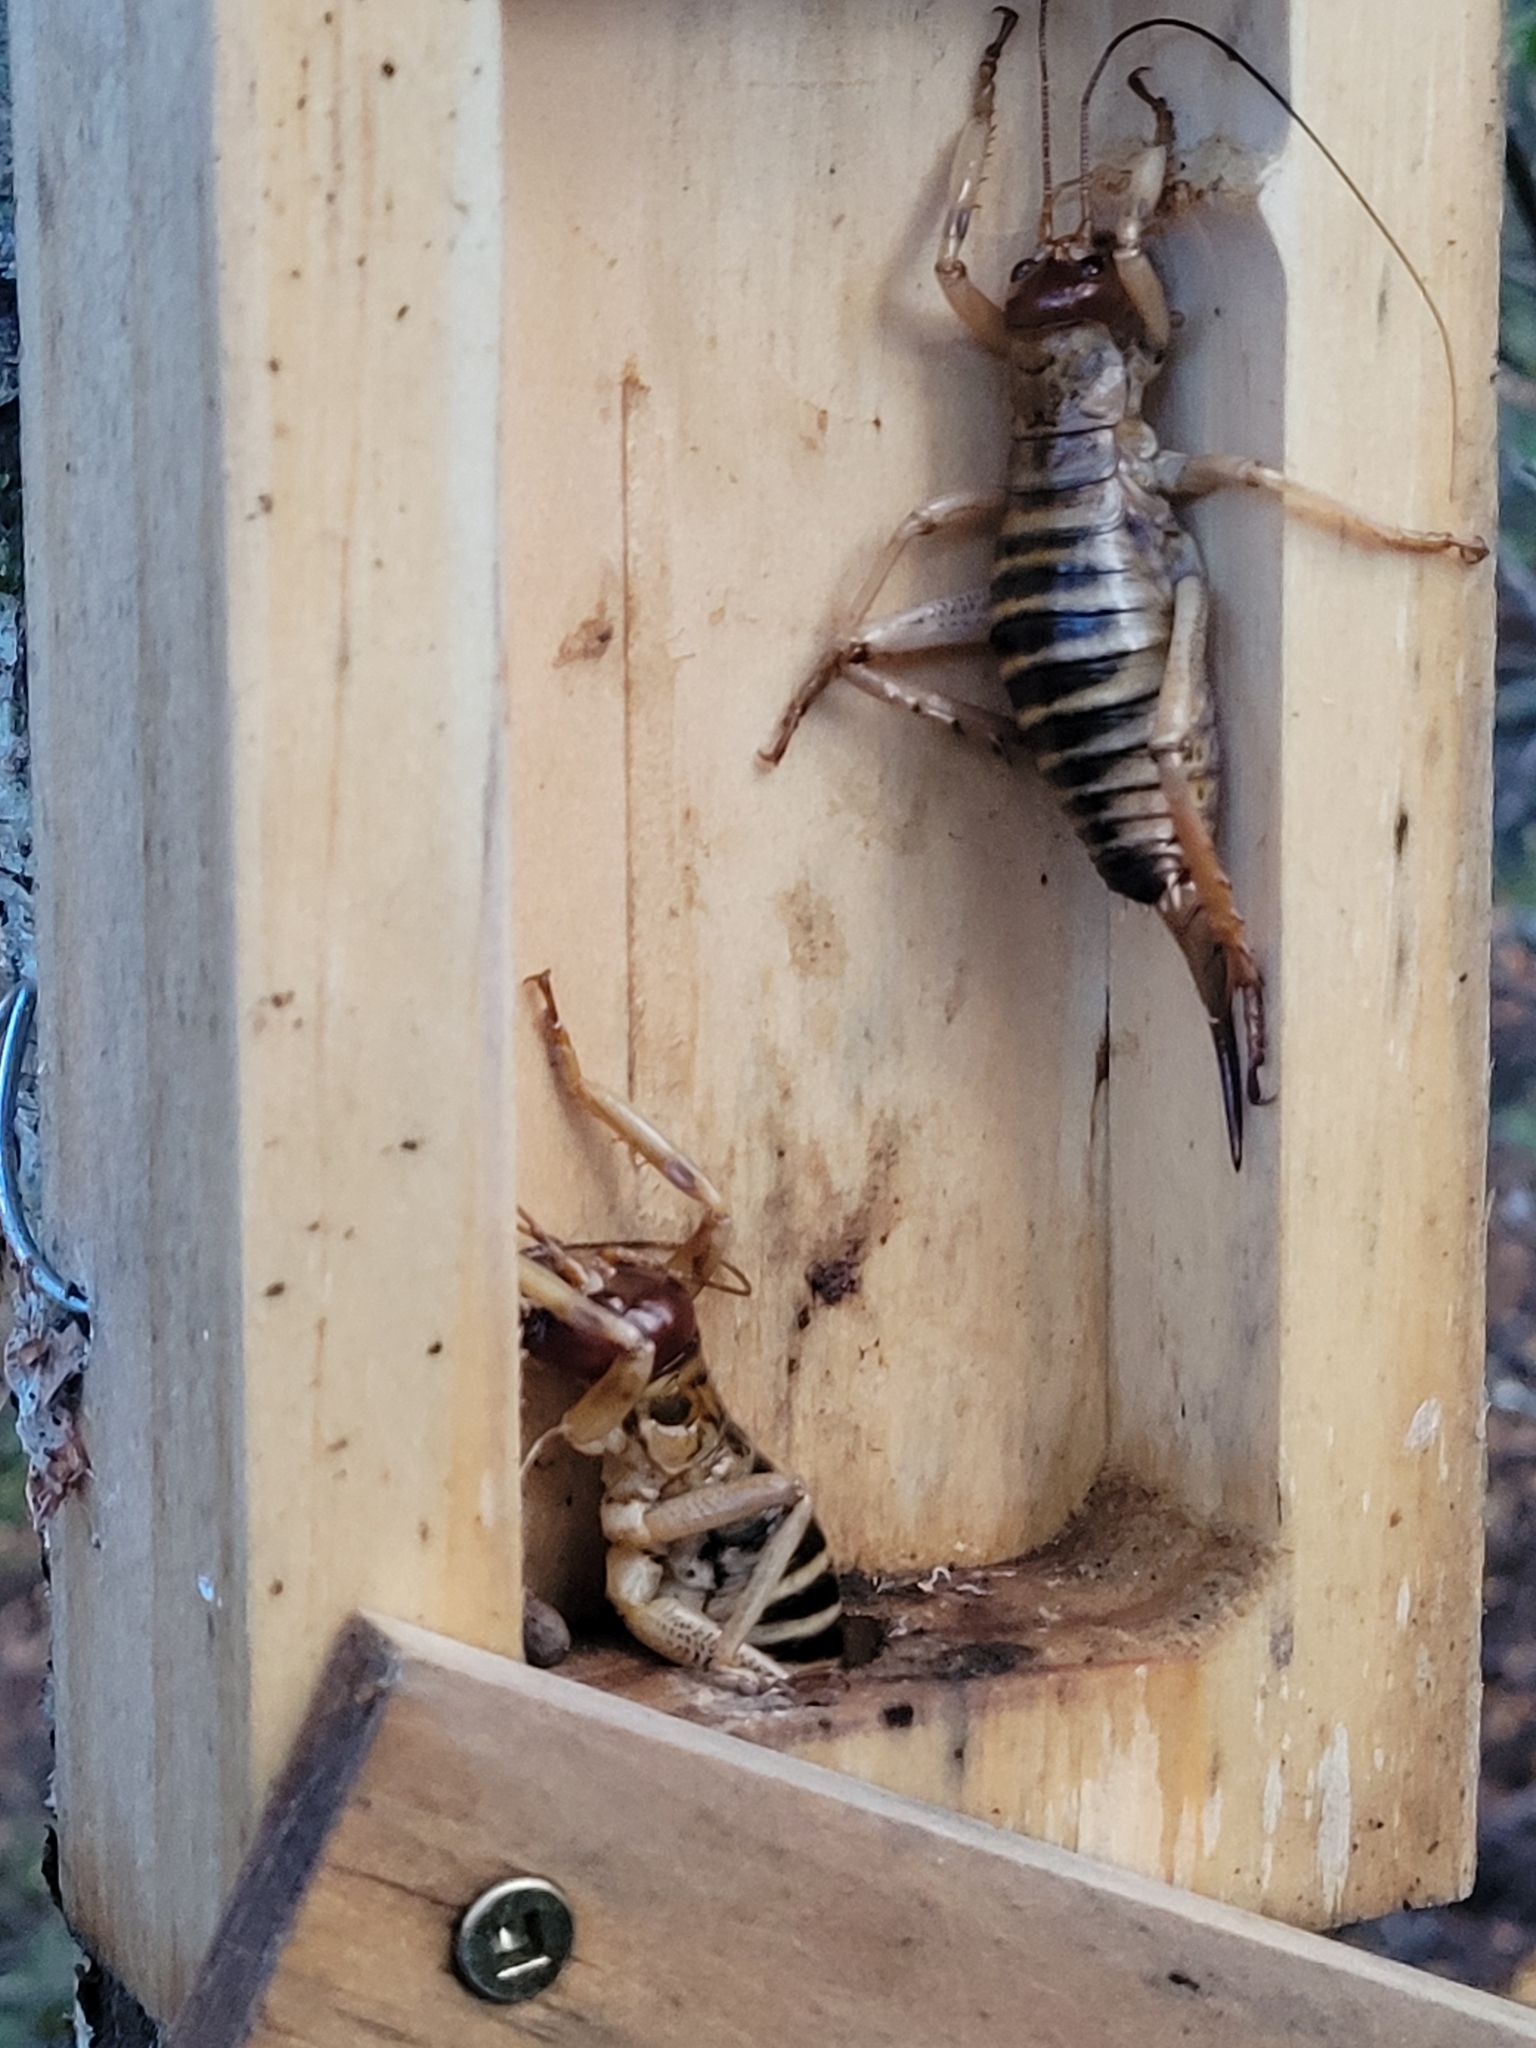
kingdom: Animalia
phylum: Arthropoda
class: Insecta
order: Orthoptera
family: Anostostomatidae
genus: Hemideina
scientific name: Hemideina femorata
